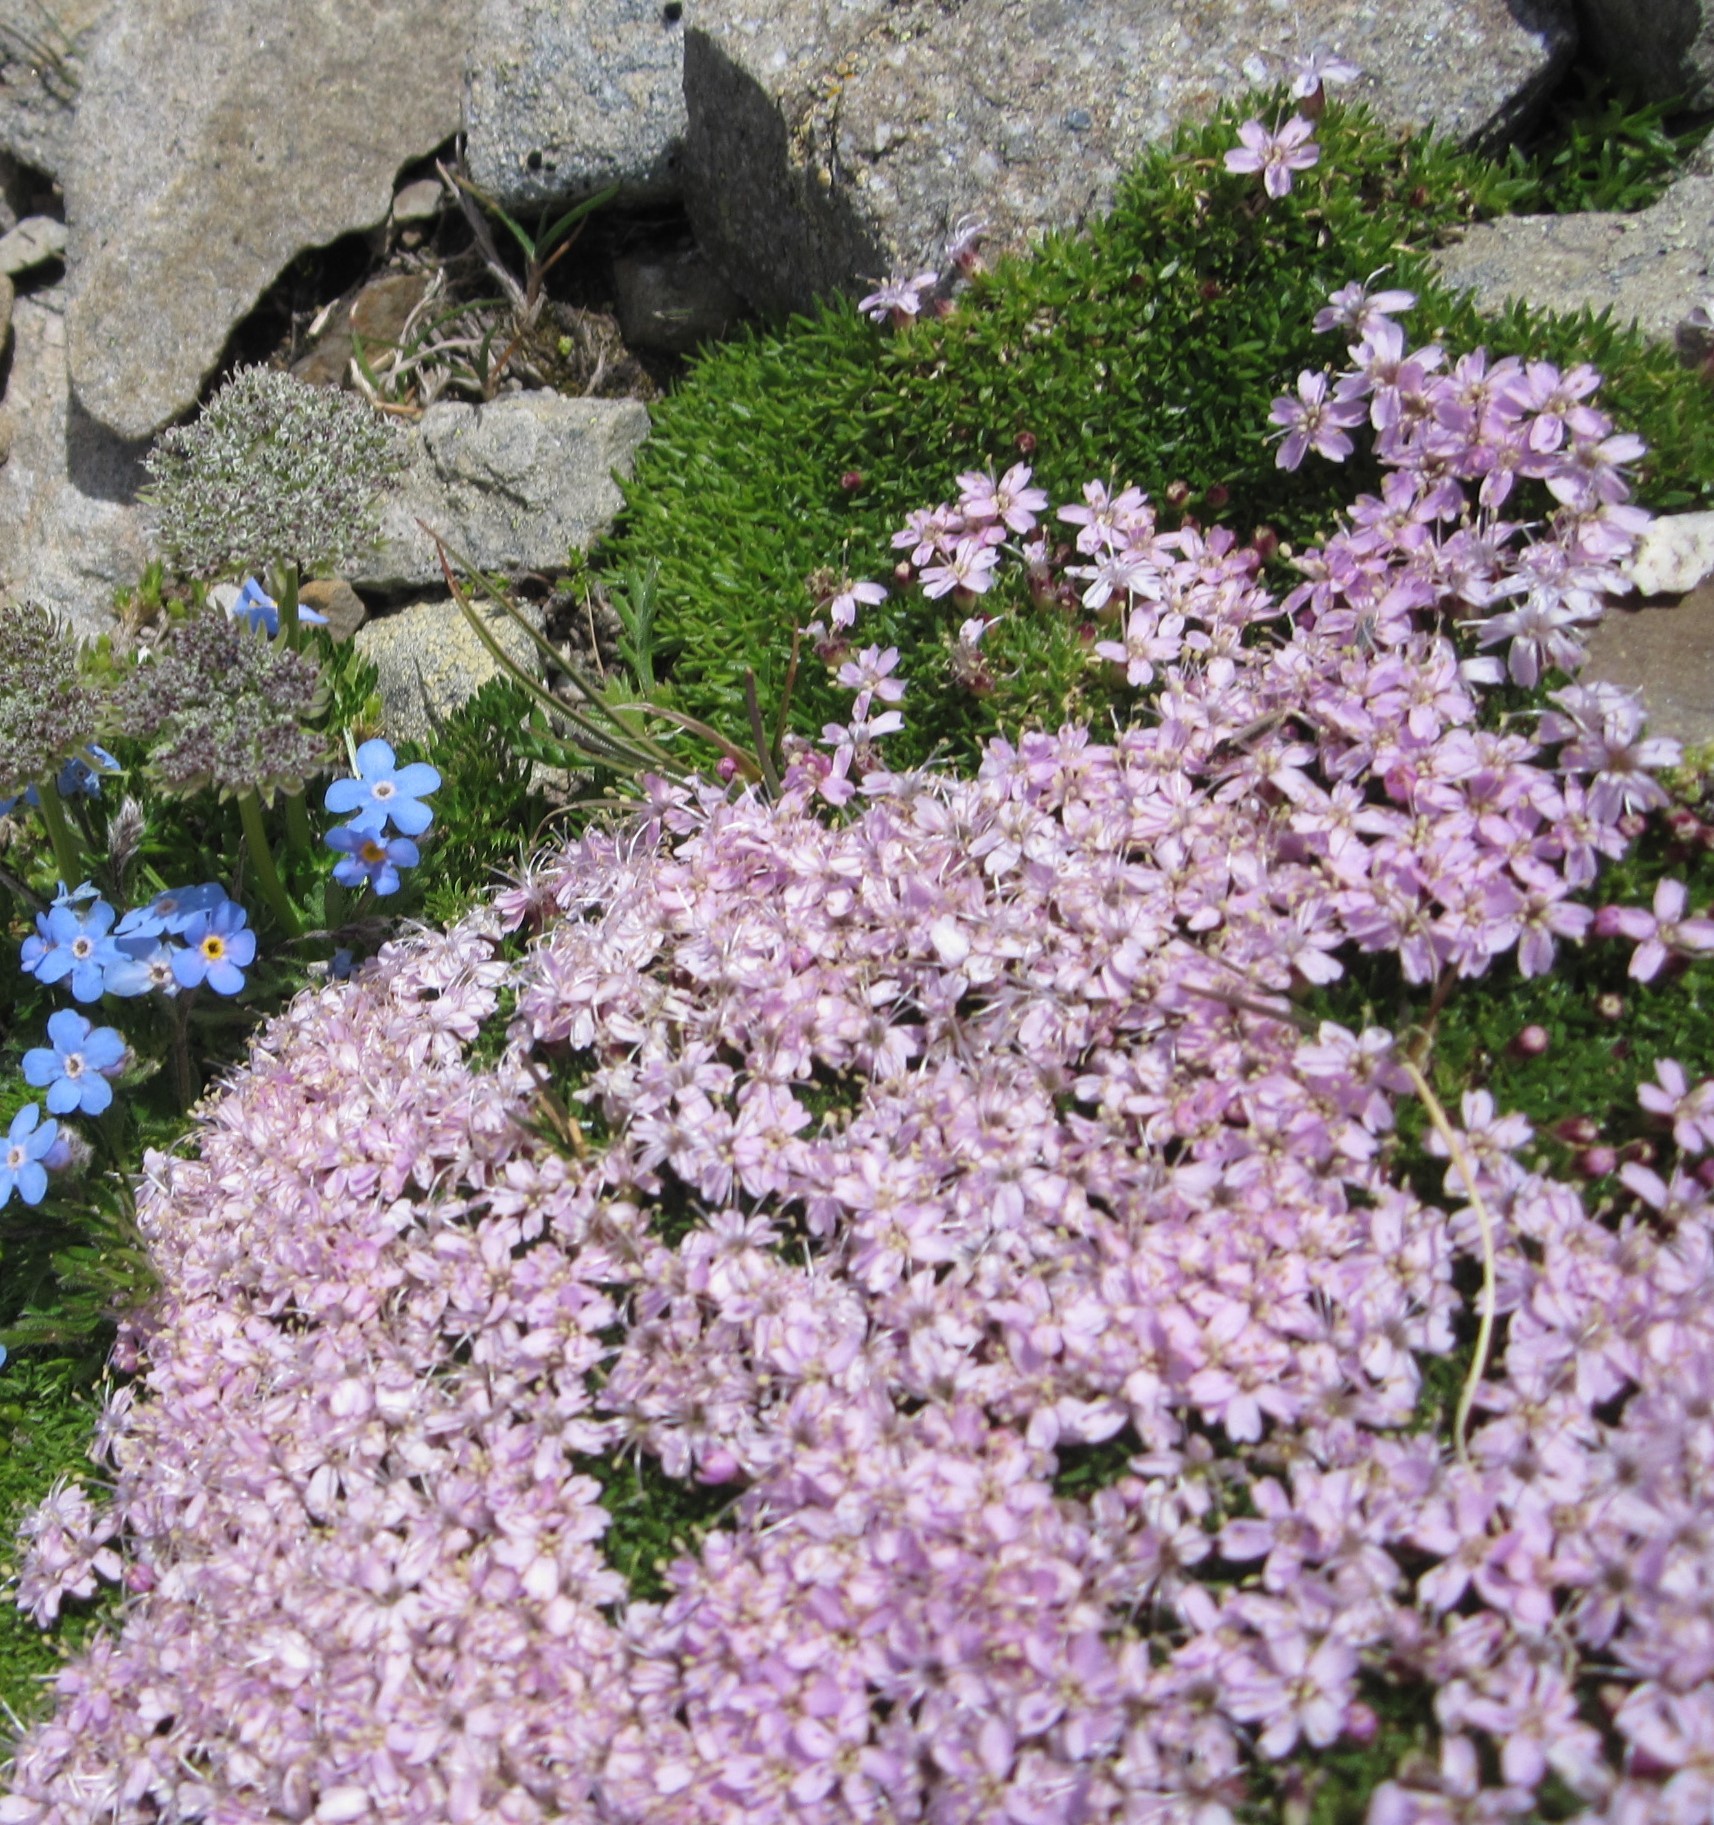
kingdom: Plantae
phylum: Tracheophyta
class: Magnoliopsida
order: Caryophyllales
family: Caryophyllaceae
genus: Silene
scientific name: Silene acaulis
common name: Moss campion
